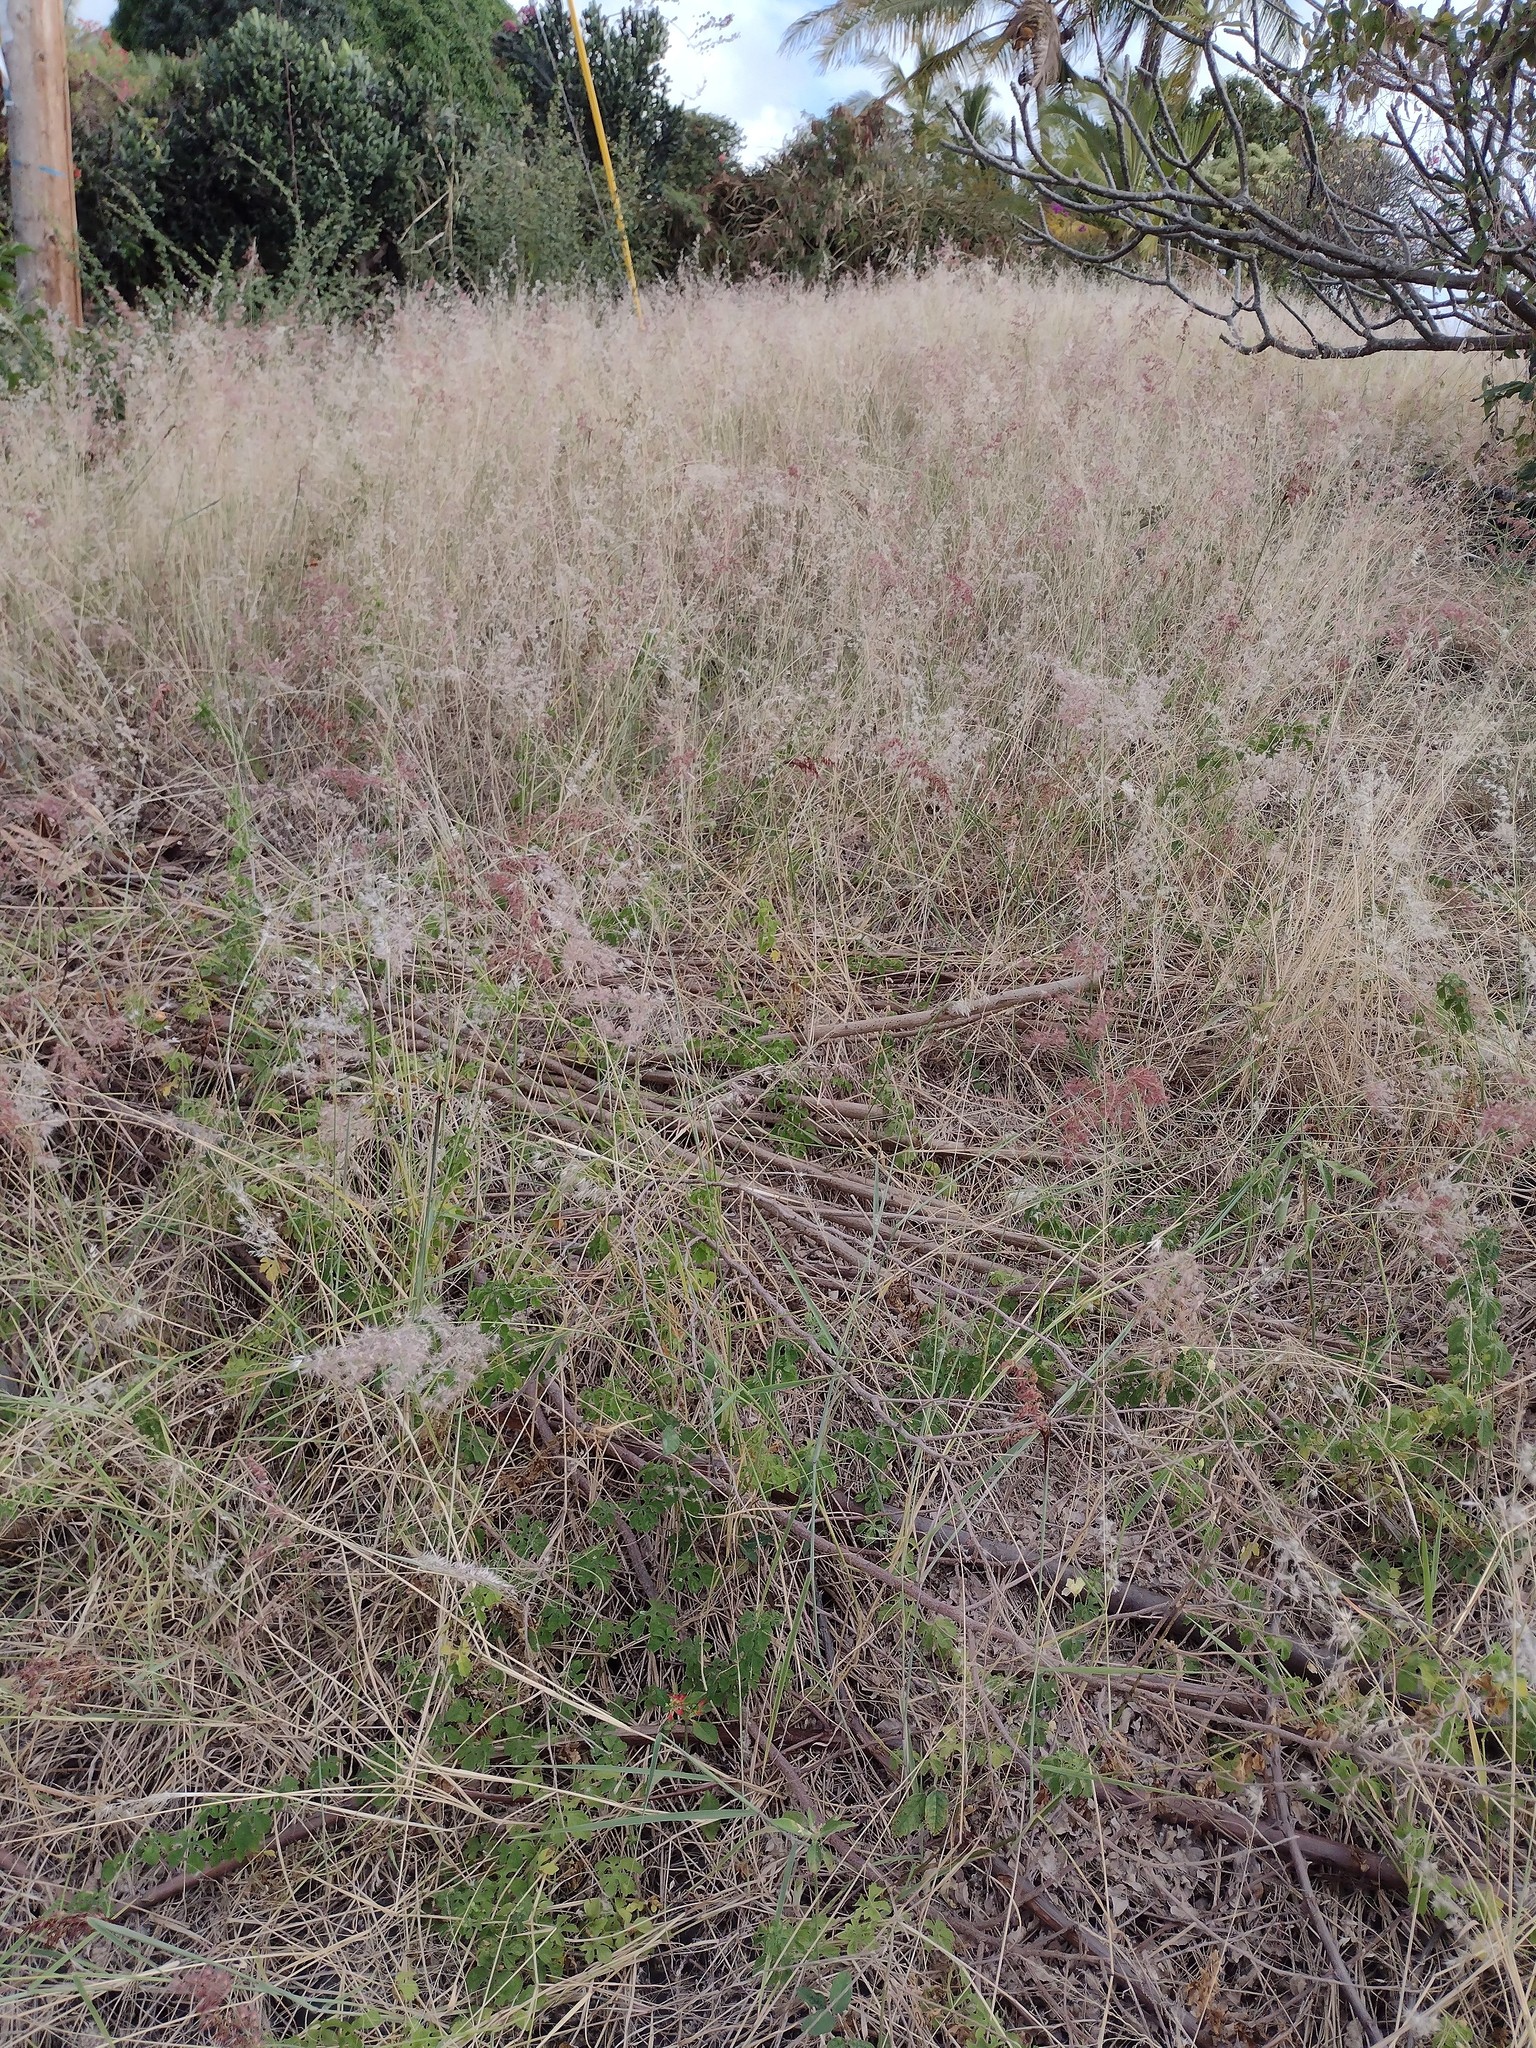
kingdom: Plantae
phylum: Tracheophyta
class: Liliopsida
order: Poales
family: Poaceae
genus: Melinis
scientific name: Melinis repens
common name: Rose natal grass
